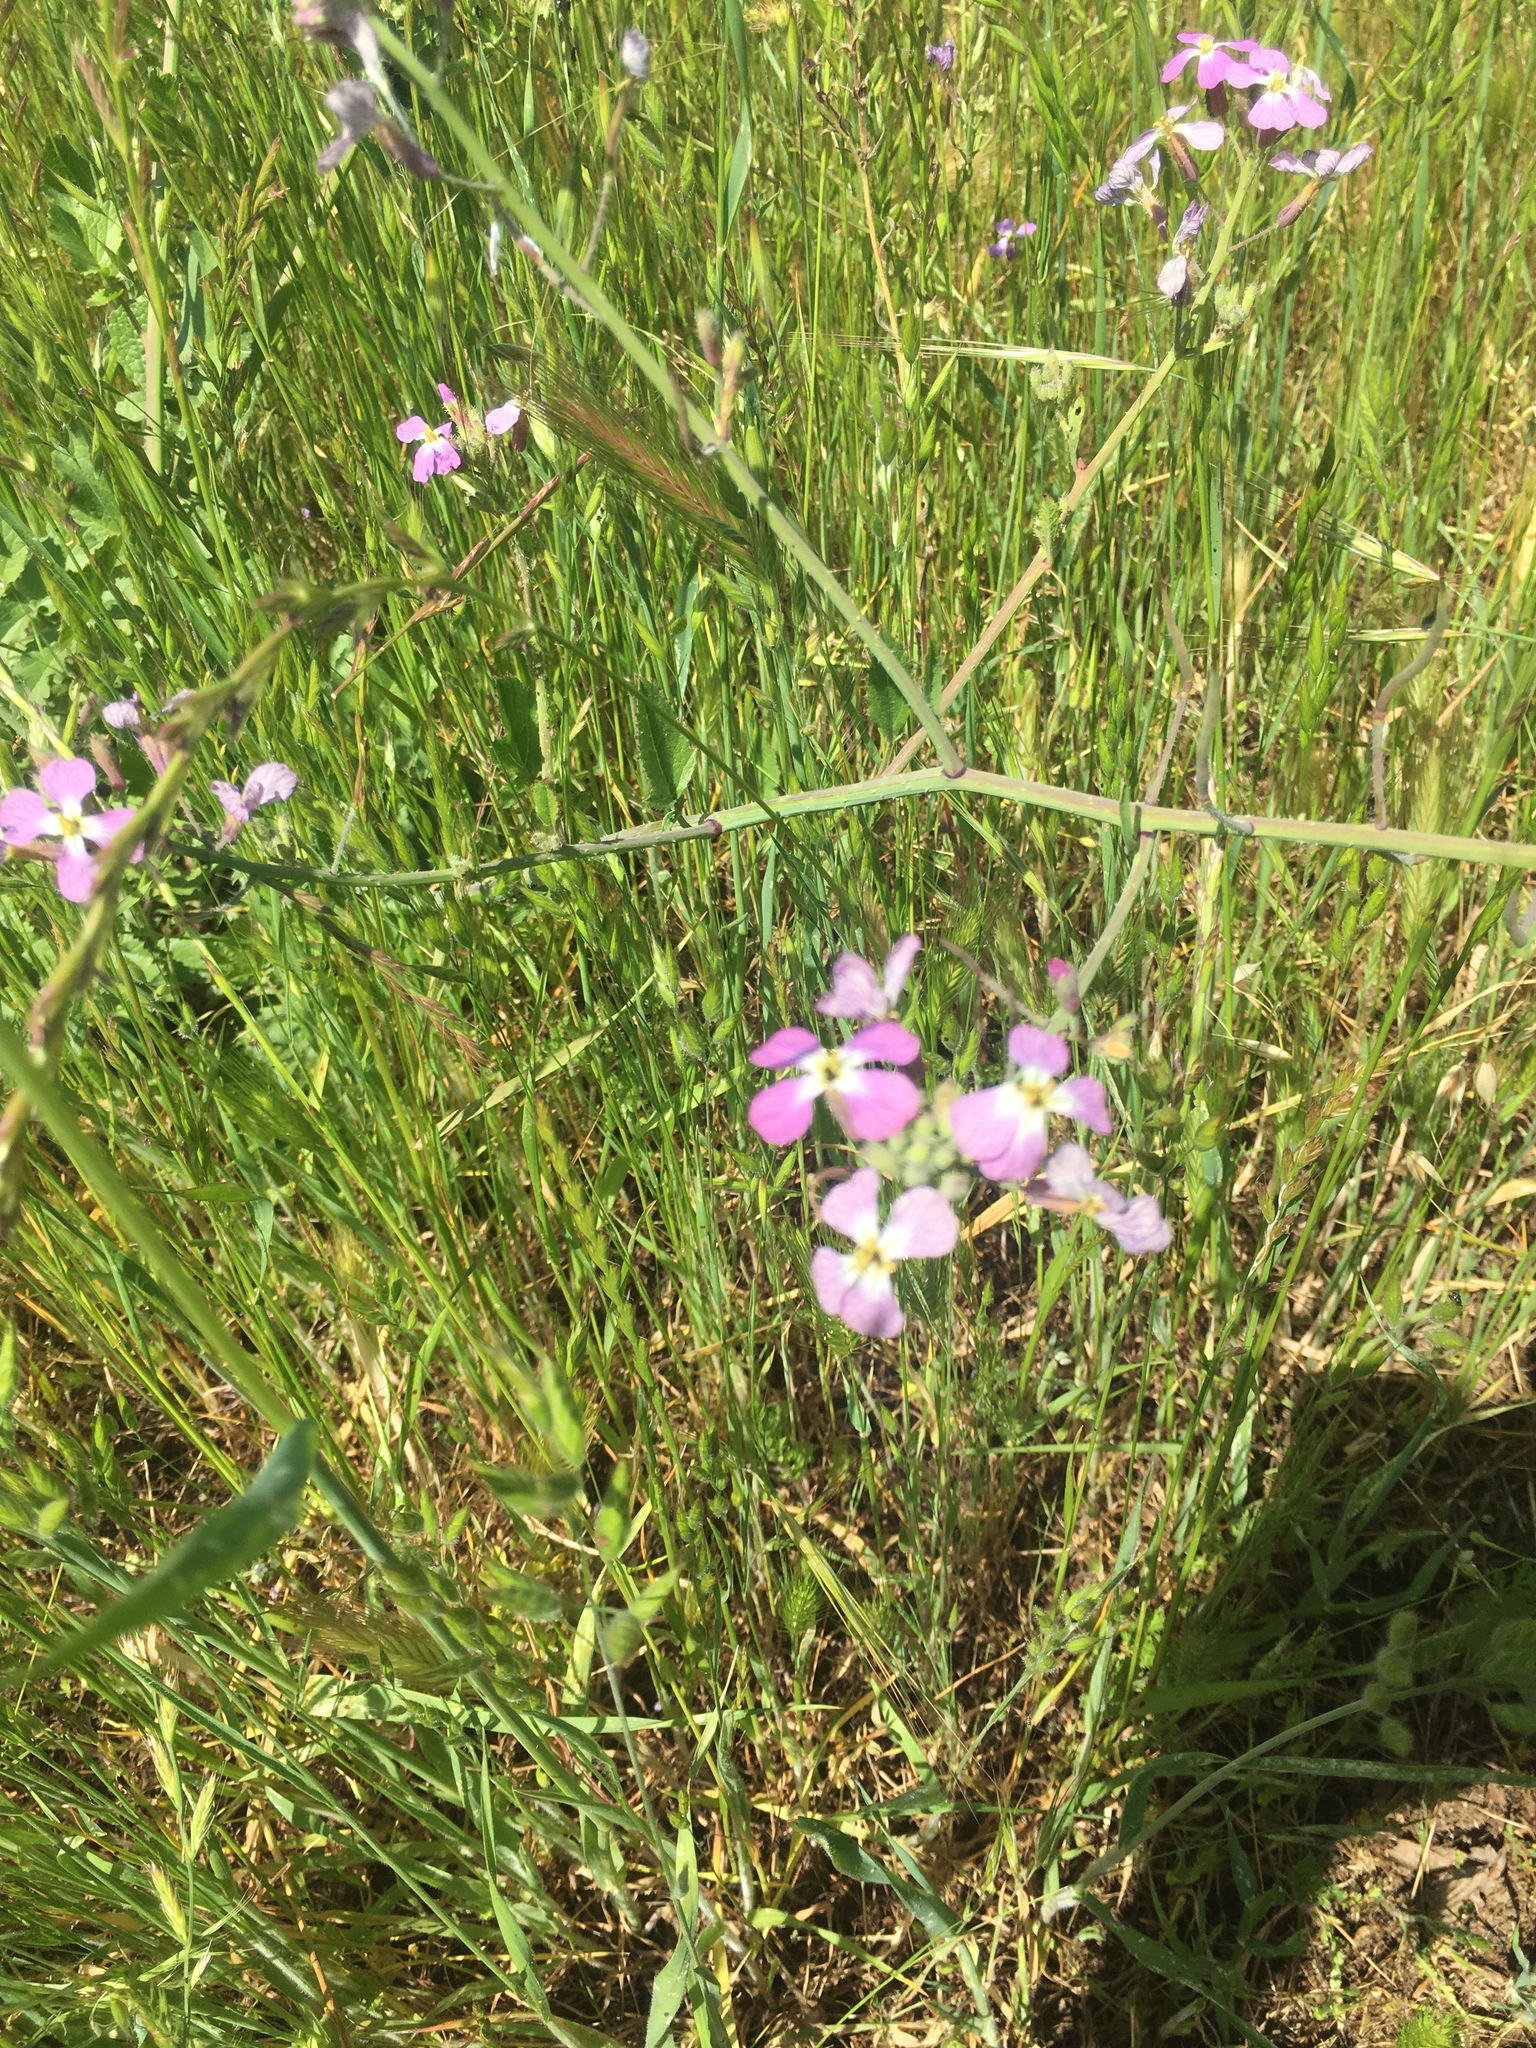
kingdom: Plantae
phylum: Tracheophyta
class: Magnoliopsida
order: Brassicales
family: Brassicaceae
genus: Raphanus
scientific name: Raphanus sativus
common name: Cultivated radish
